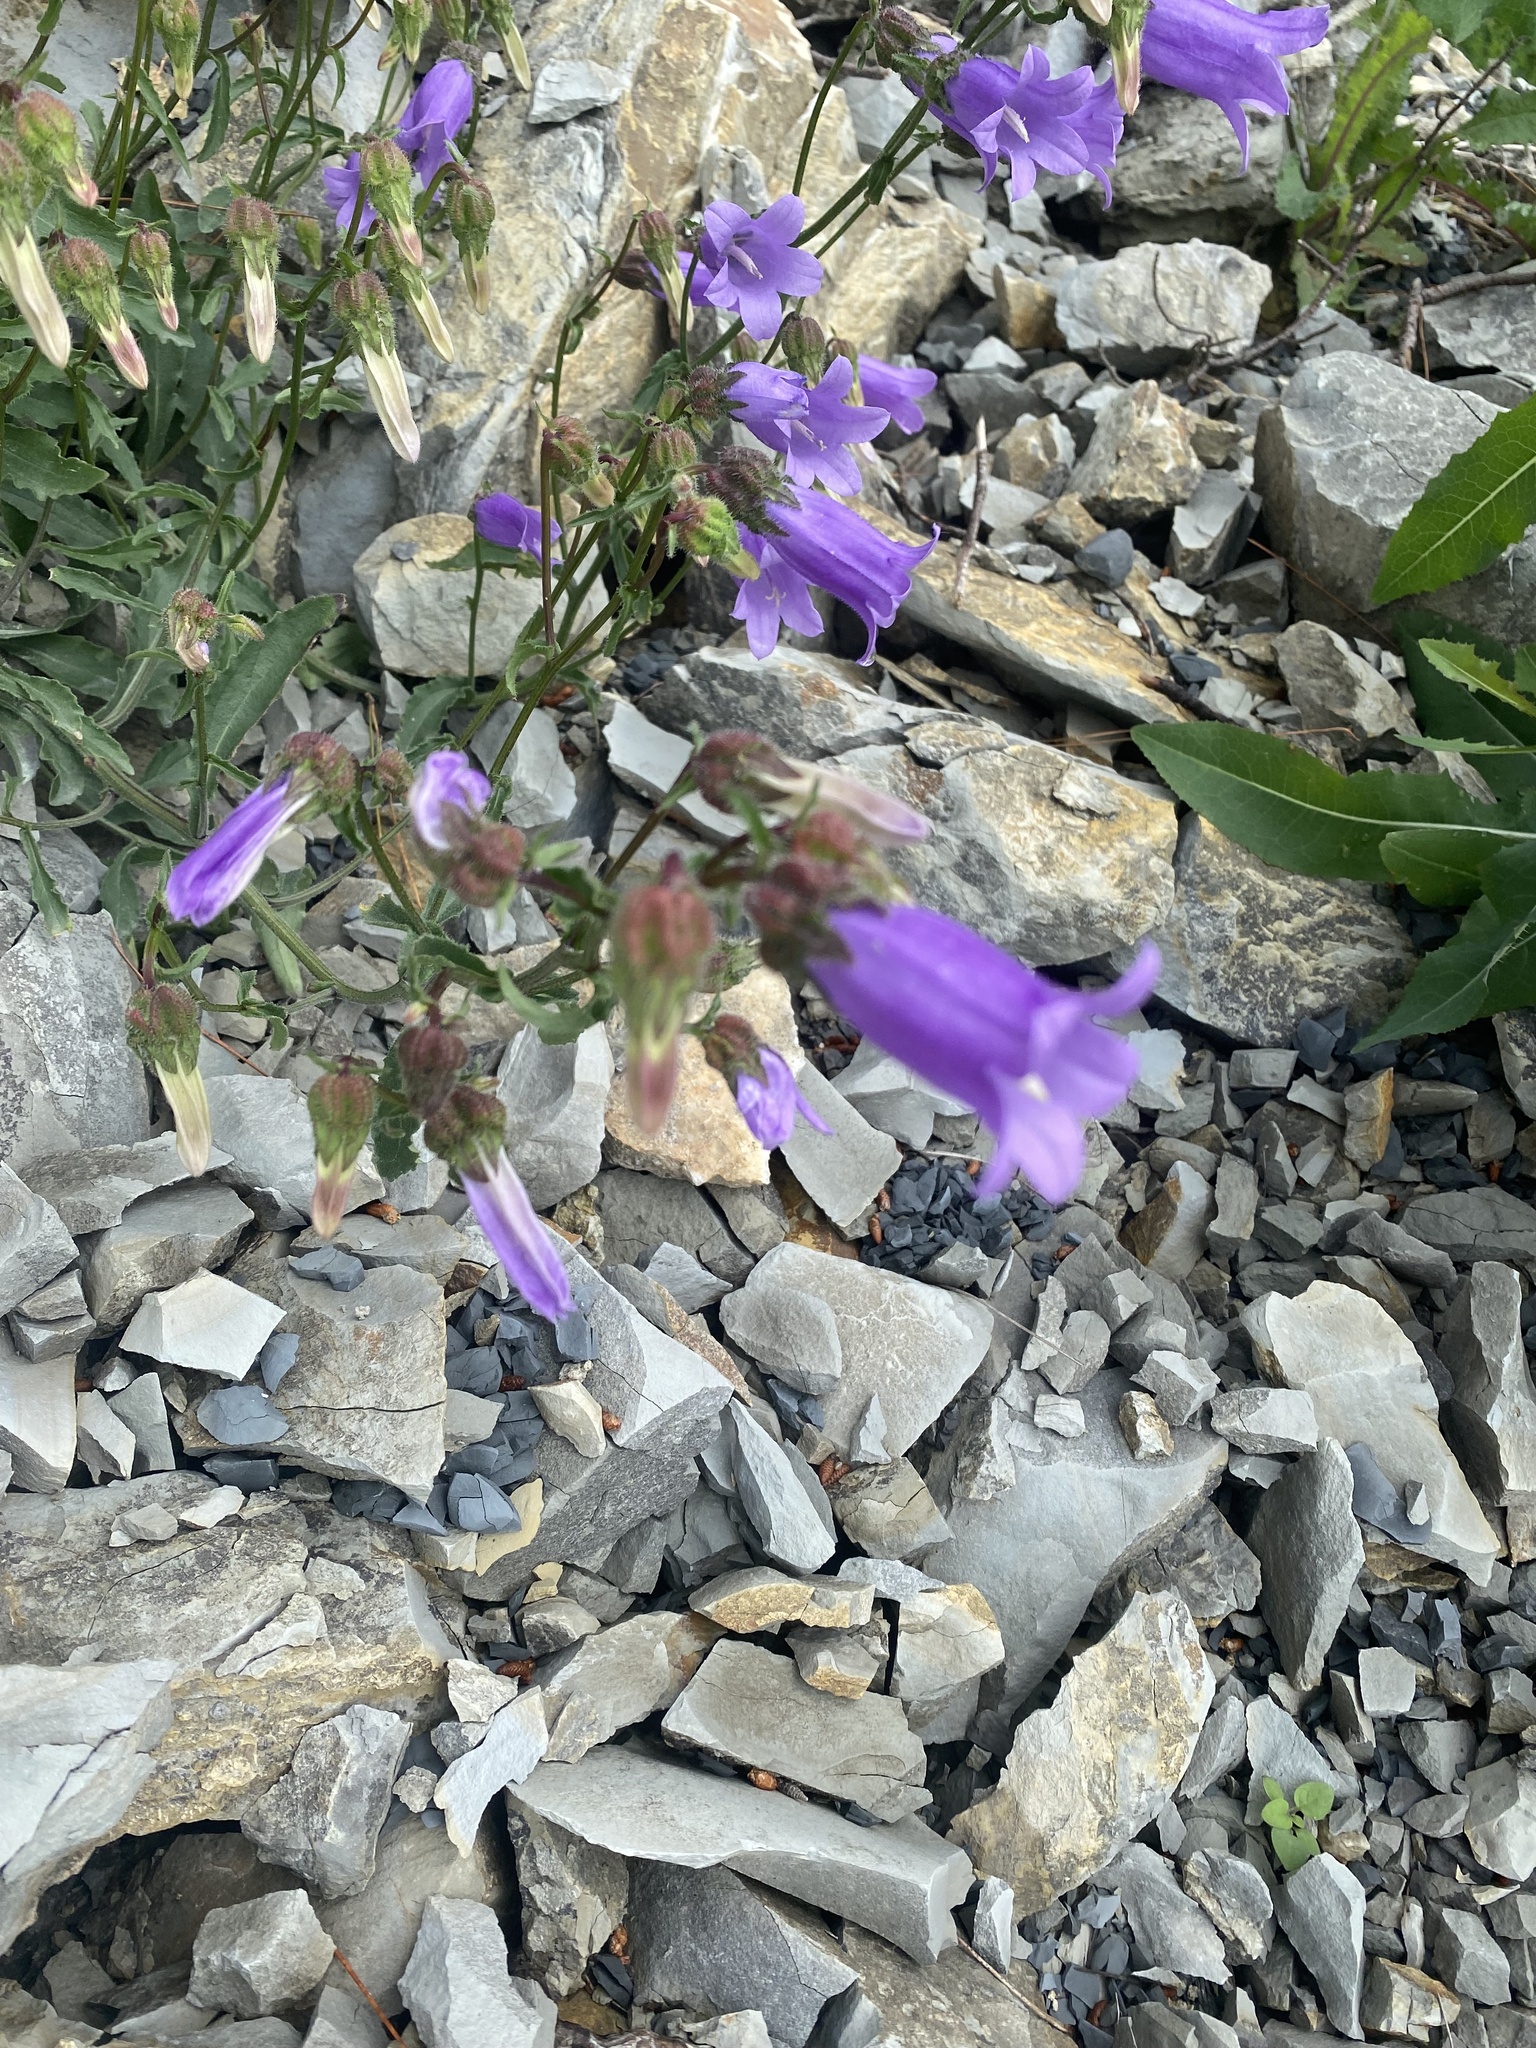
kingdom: Plantae
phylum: Tracheophyta
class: Magnoliopsida
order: Asterales
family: Campanulaceae
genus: Campanula
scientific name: Campanula komarovii
